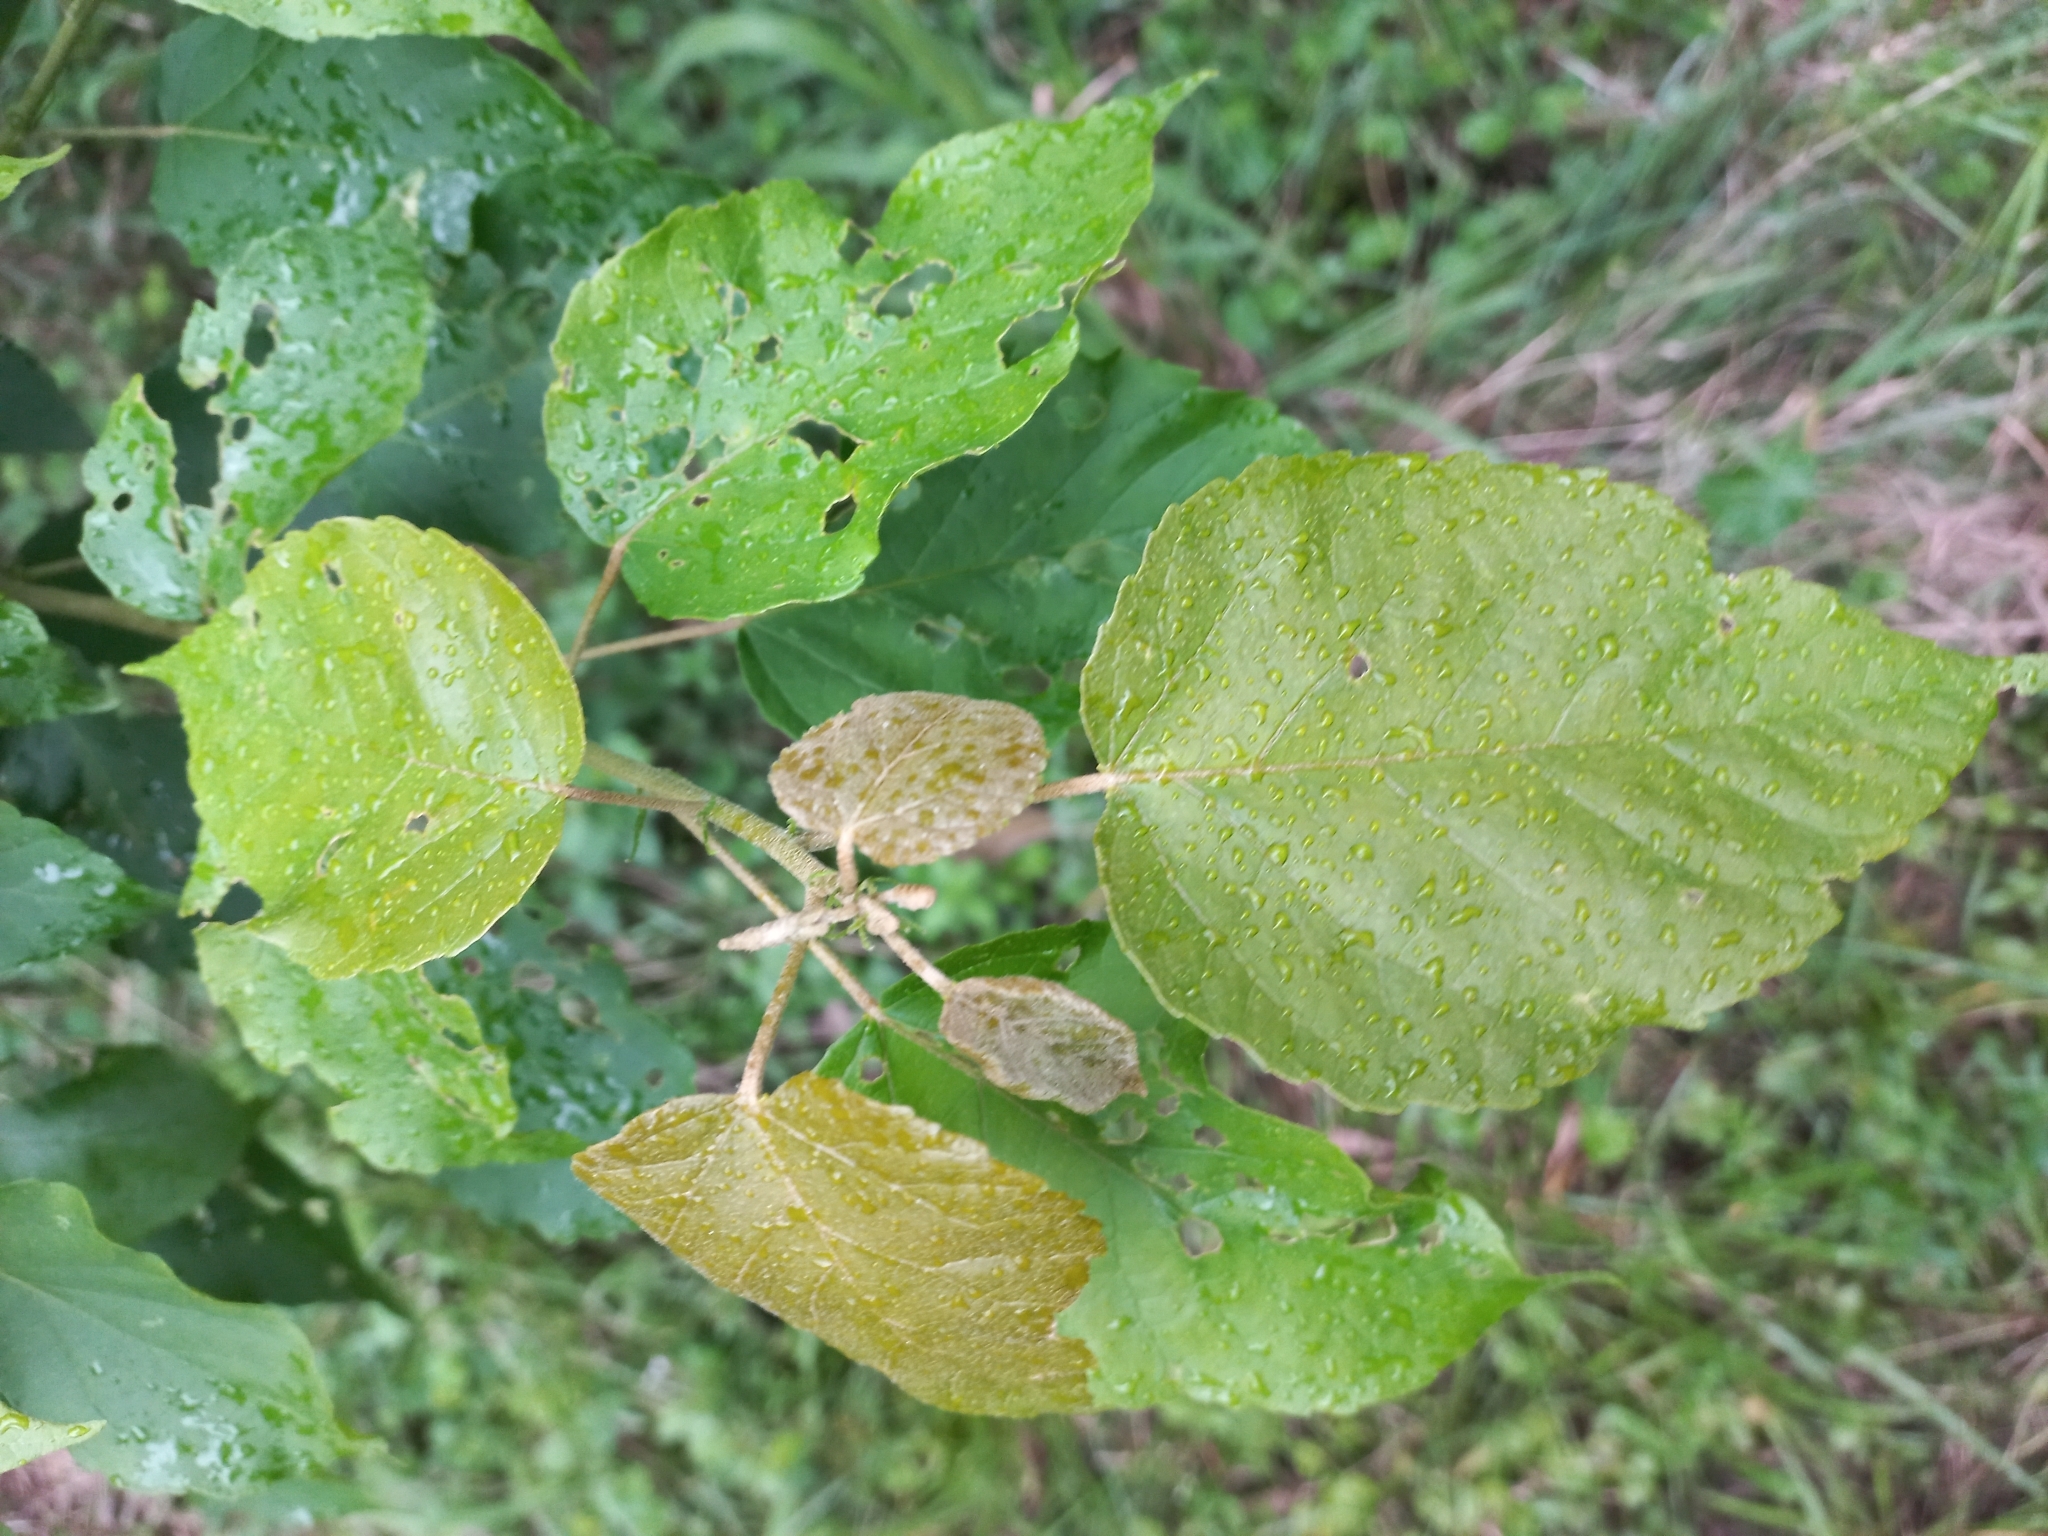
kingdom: Plantae
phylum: Tracheophyta
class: Magnoliopsida
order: Malpighiales
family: Euphorbiaceae
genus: Croton
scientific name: Croton sylvaticus
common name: Forest croton
